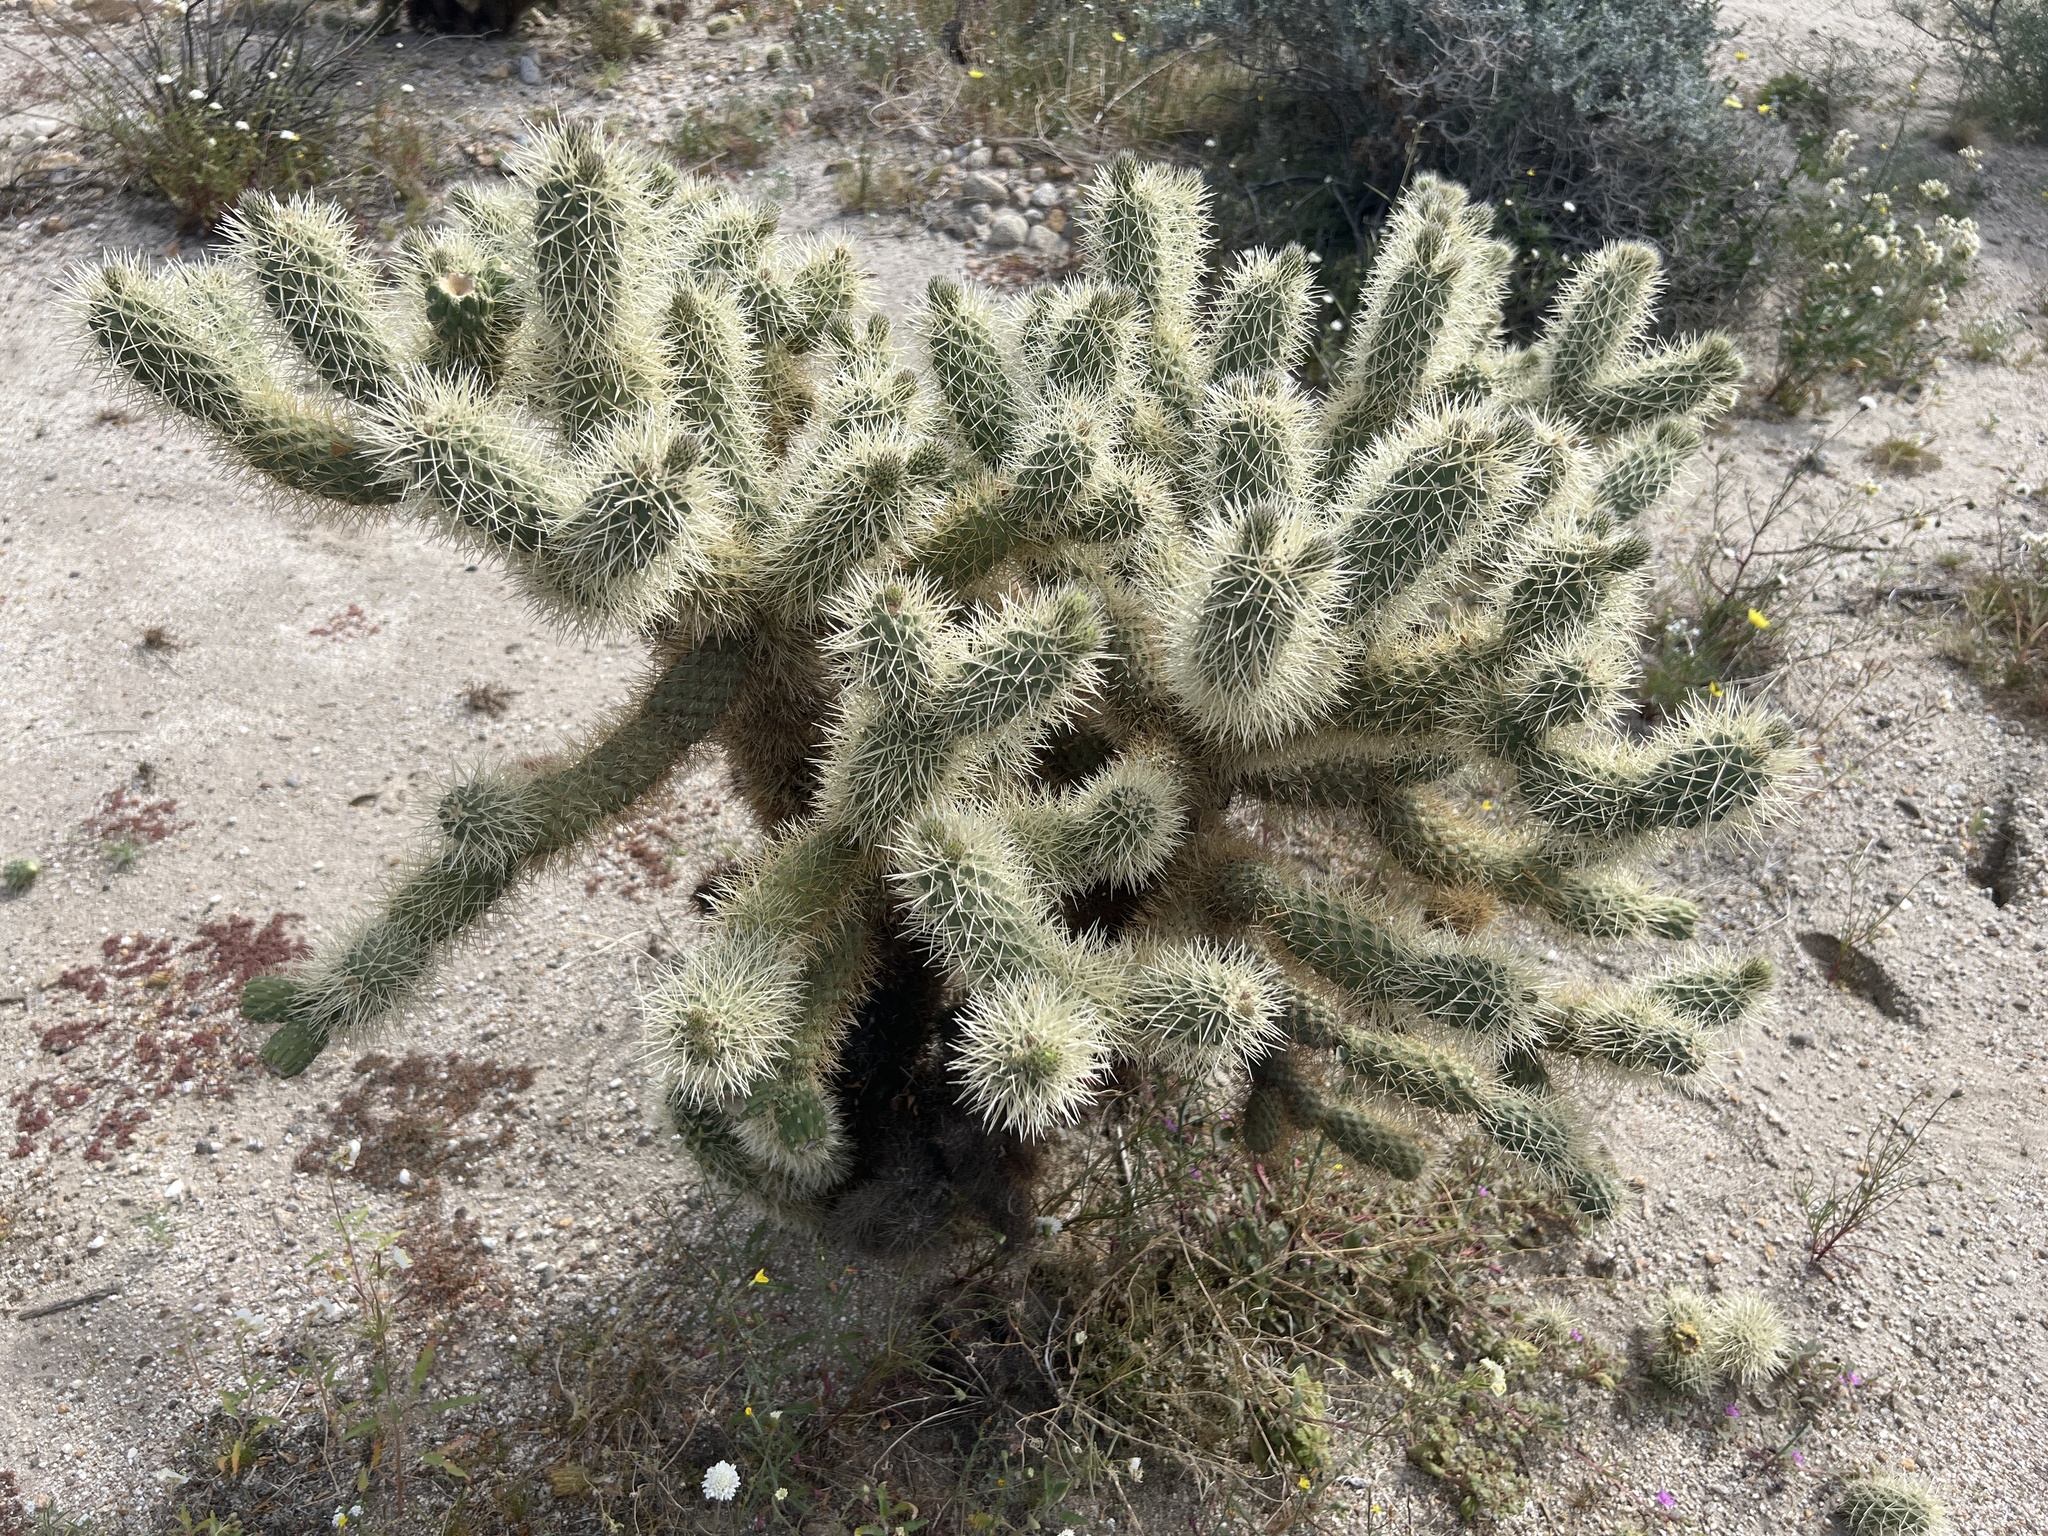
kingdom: Plantae
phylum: Tracheophyta
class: Magnoliopsida
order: Caryophyllales
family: Cactaceae
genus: Cylindropuntia
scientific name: Cylindropuntia fosbergii
